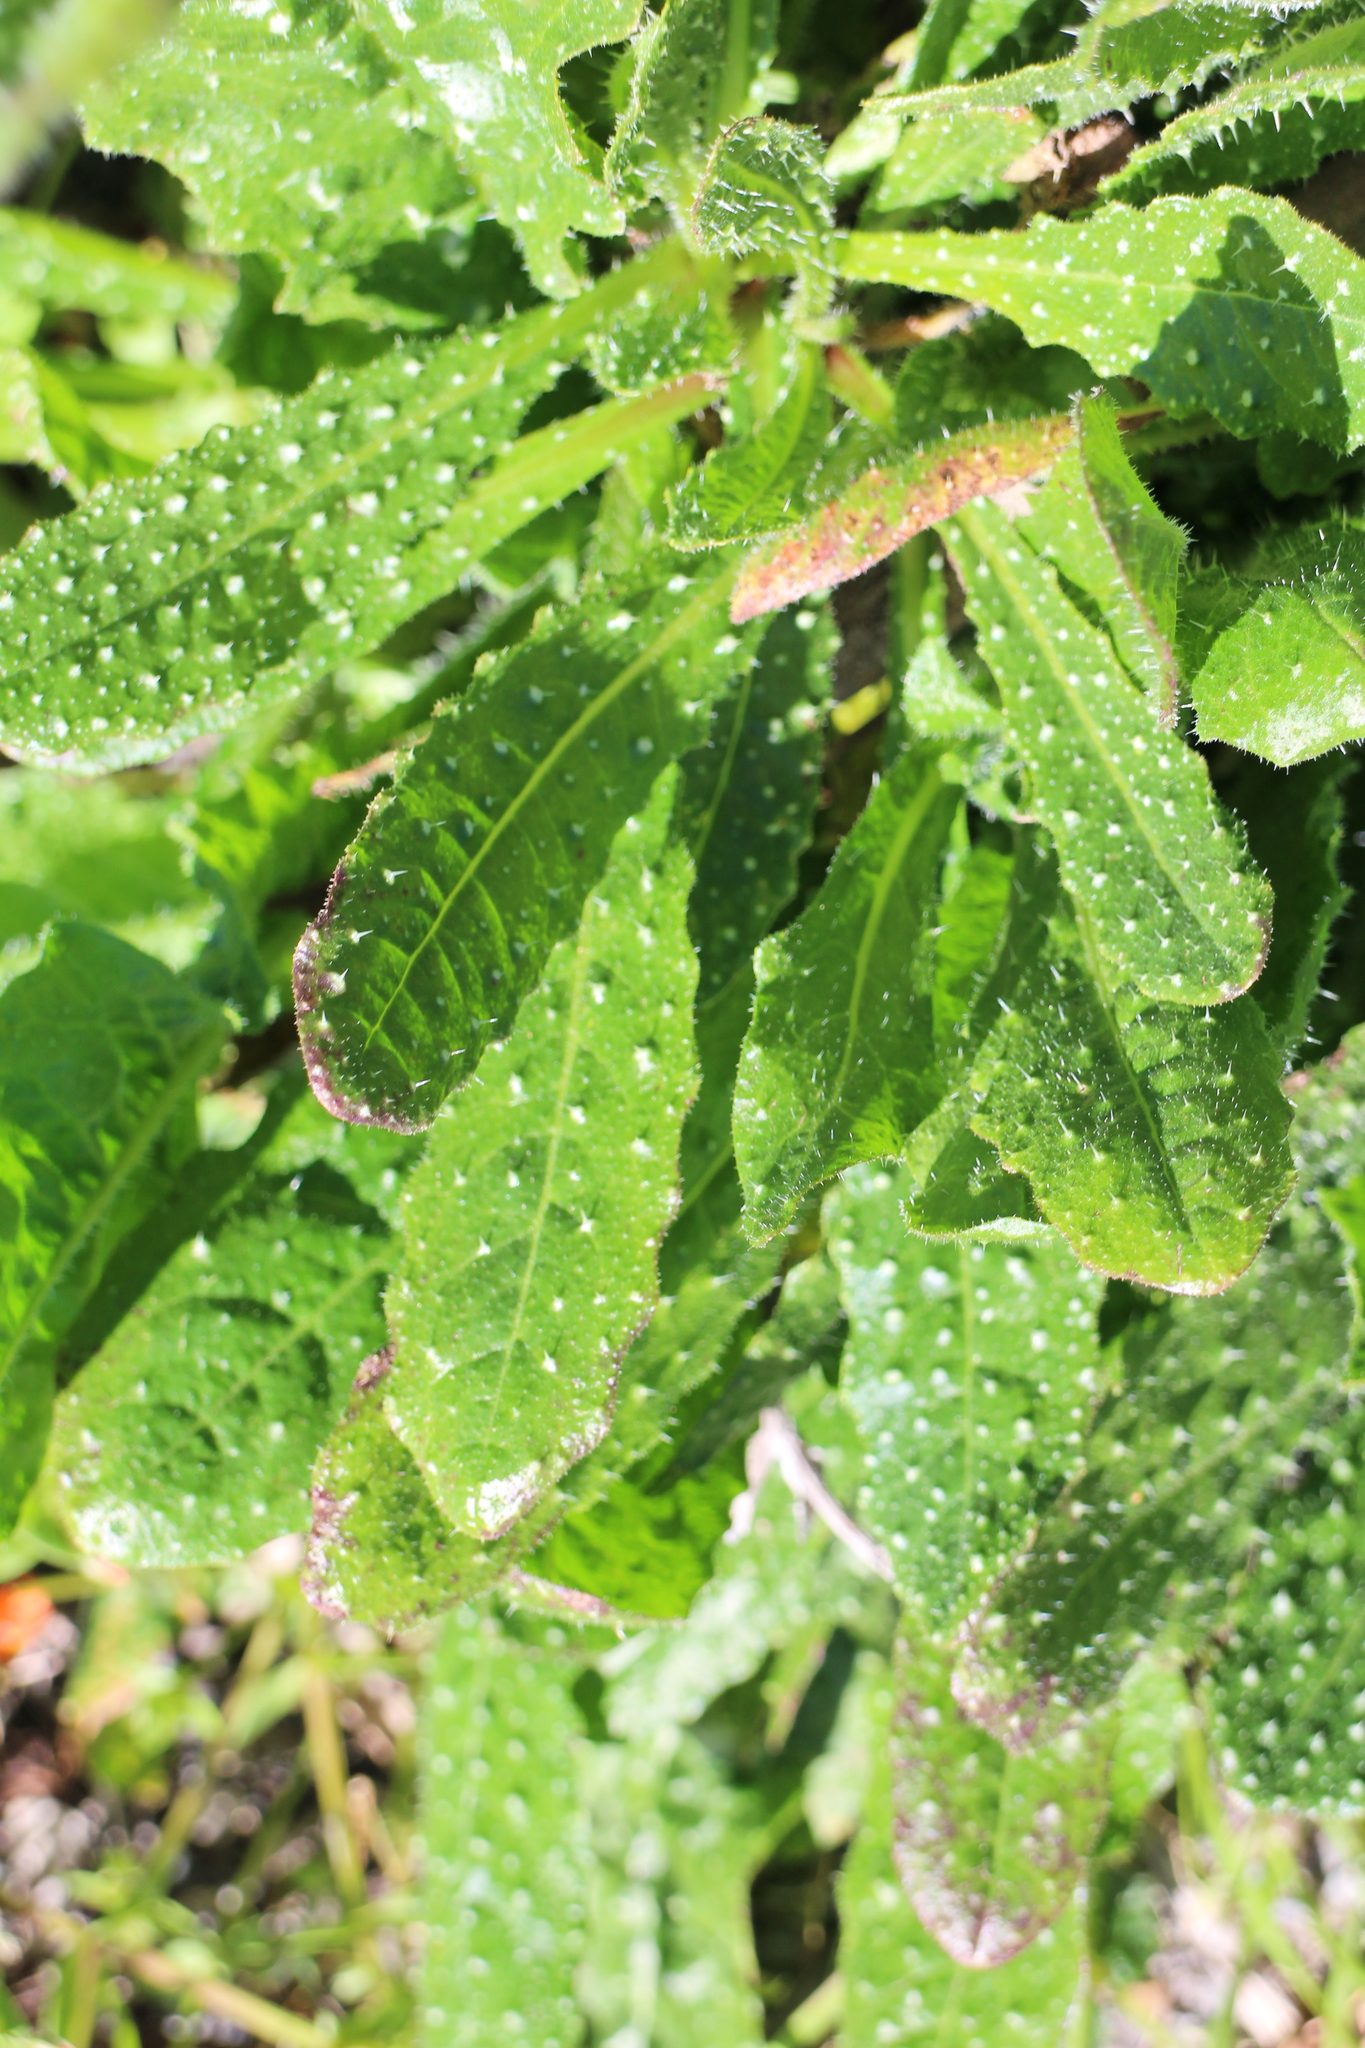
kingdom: Plantae
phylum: Tracheophyta
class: Magnoliopsida
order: Asterales
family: Asteraceae
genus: Helminthotheca
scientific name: Helminthotheca echioides
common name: Ox-tongue
